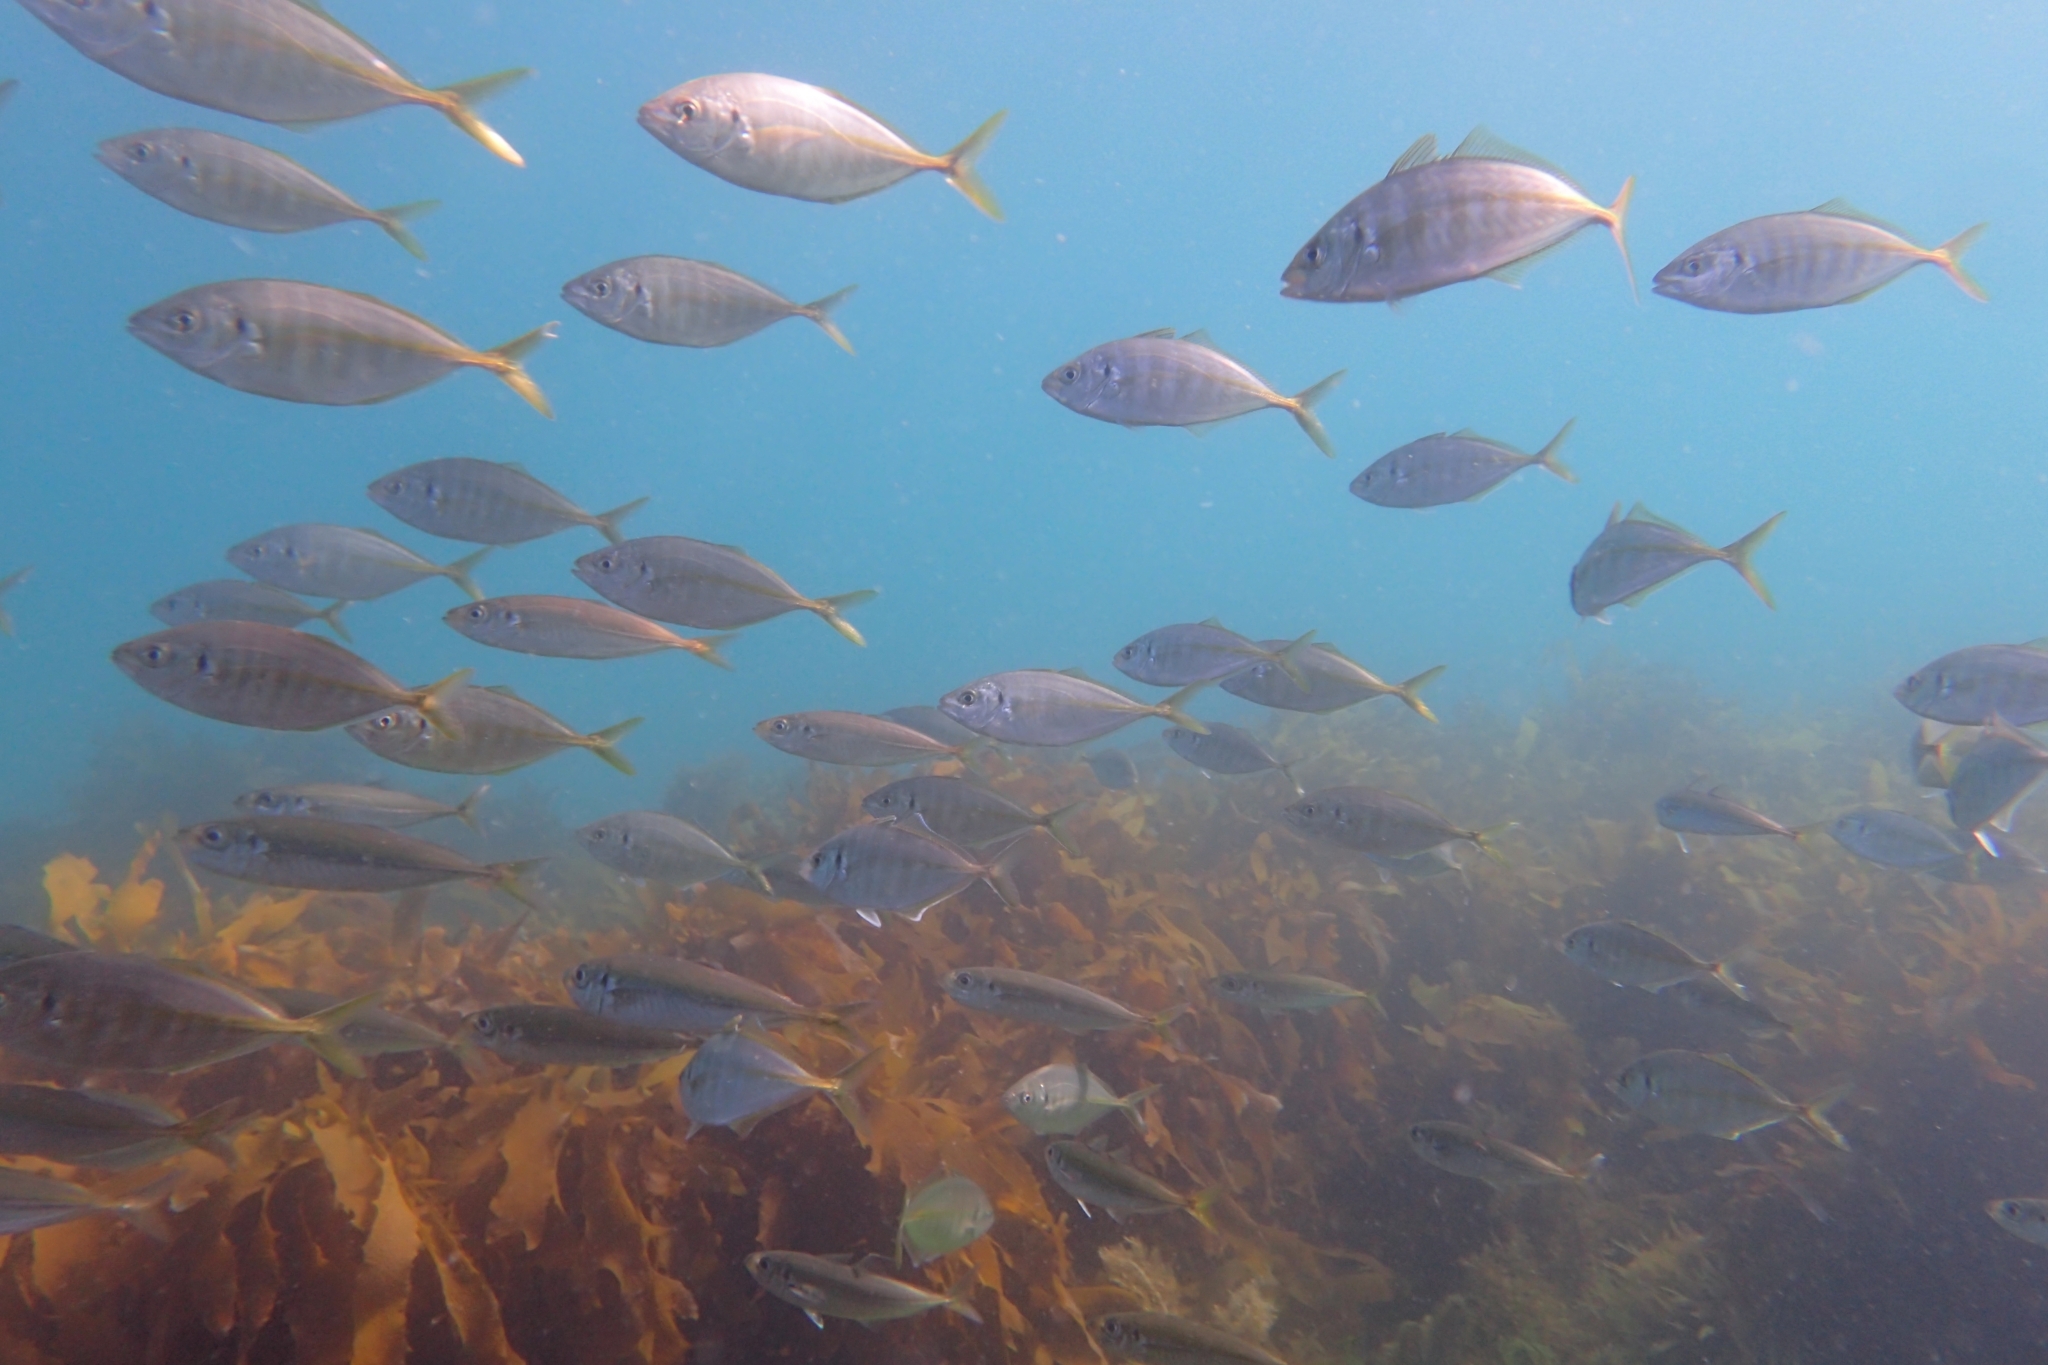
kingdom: Animalia
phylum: Chordata
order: Perciformes
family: Carangidae
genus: Pseudocaranx
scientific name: Pseudocaranx dentex
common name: White trevally
